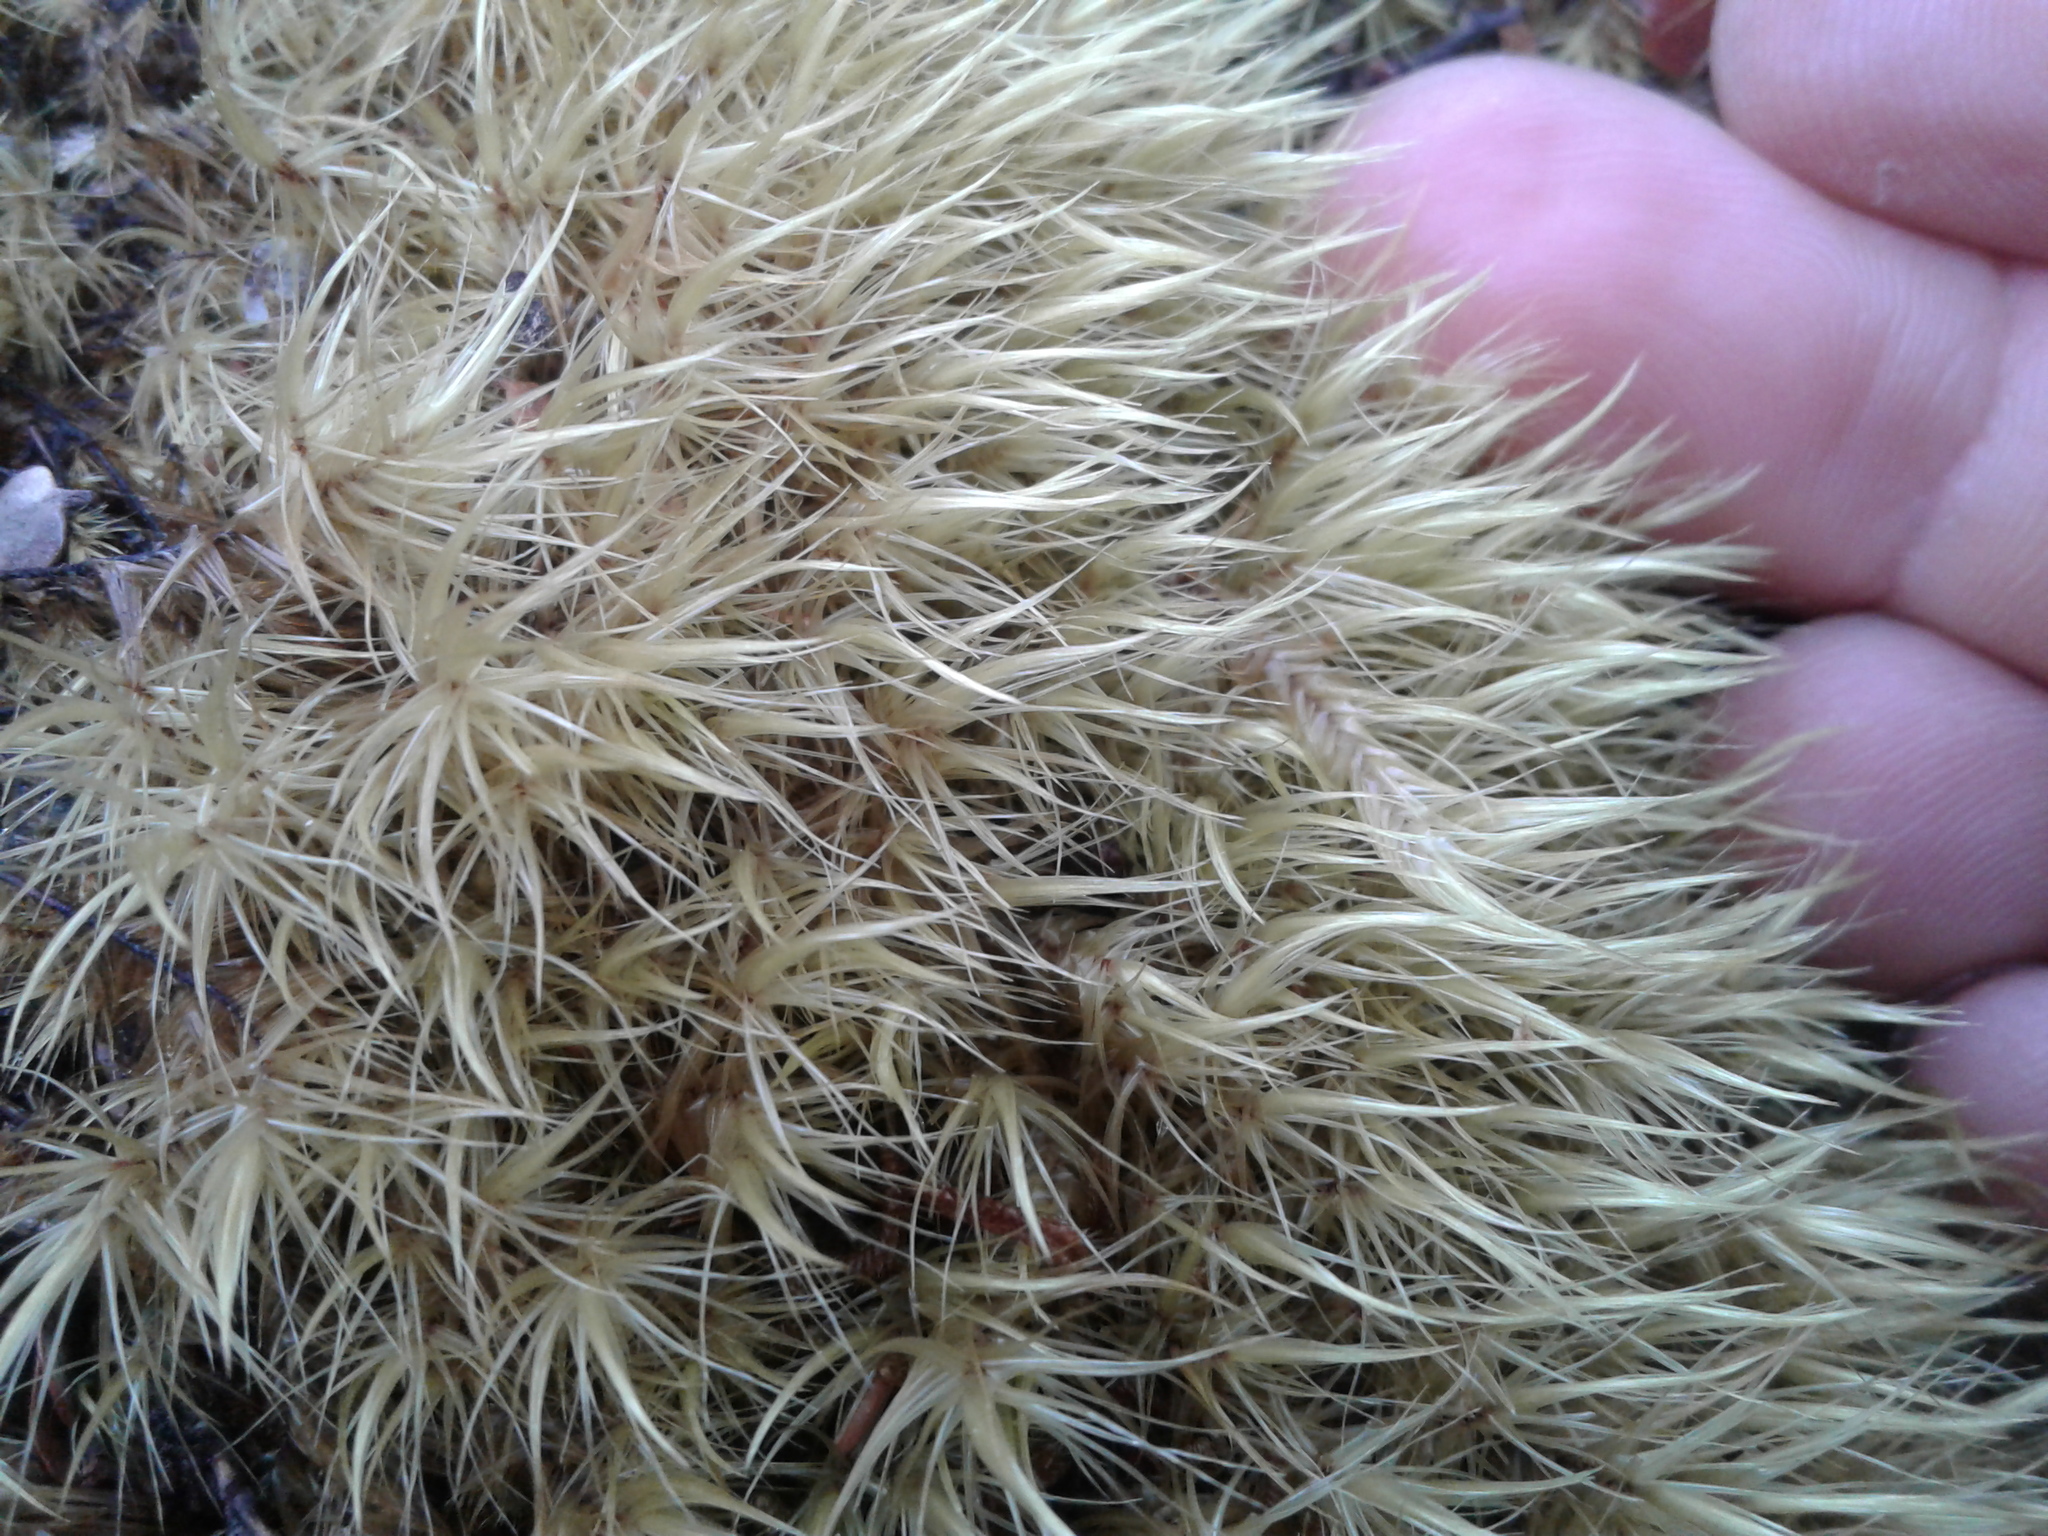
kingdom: Plantae
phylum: Bryophyta
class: Bryopsida
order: Dicranales
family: Dicranaceae
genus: Dicranoloma
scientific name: Dicranoloma
